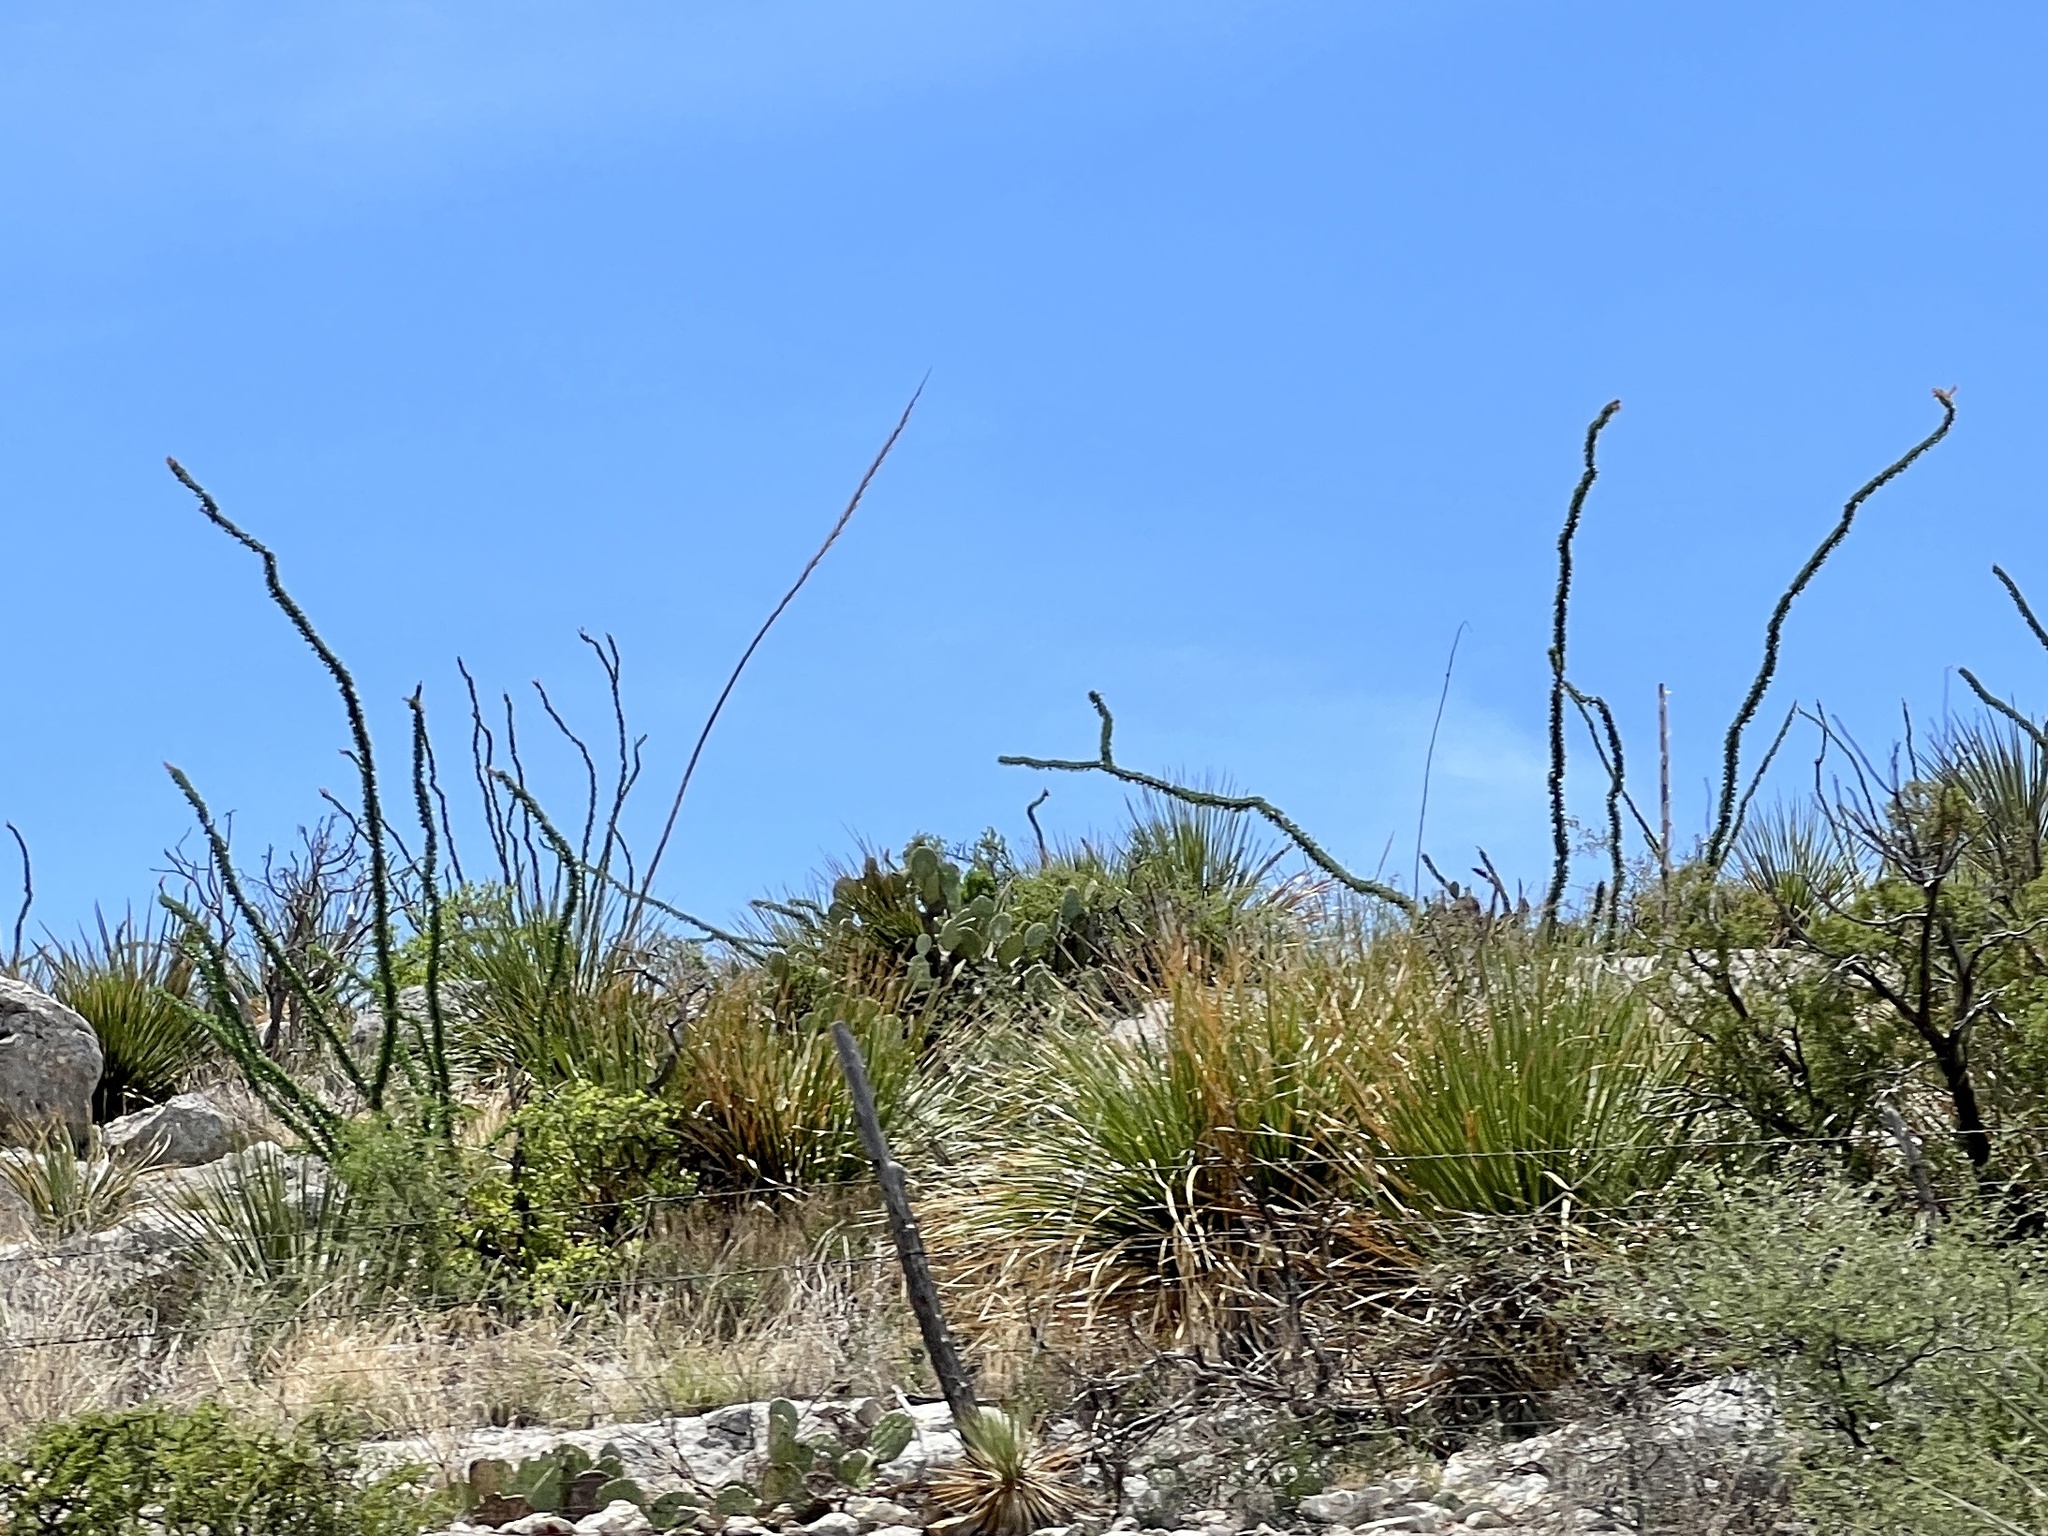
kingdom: Plantae
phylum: Tracheophyta
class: Magnoliopsida
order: Ericales
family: Fouquieriaceae
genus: Fouquieria
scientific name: Fouquieria splendens
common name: Vine-cactus
